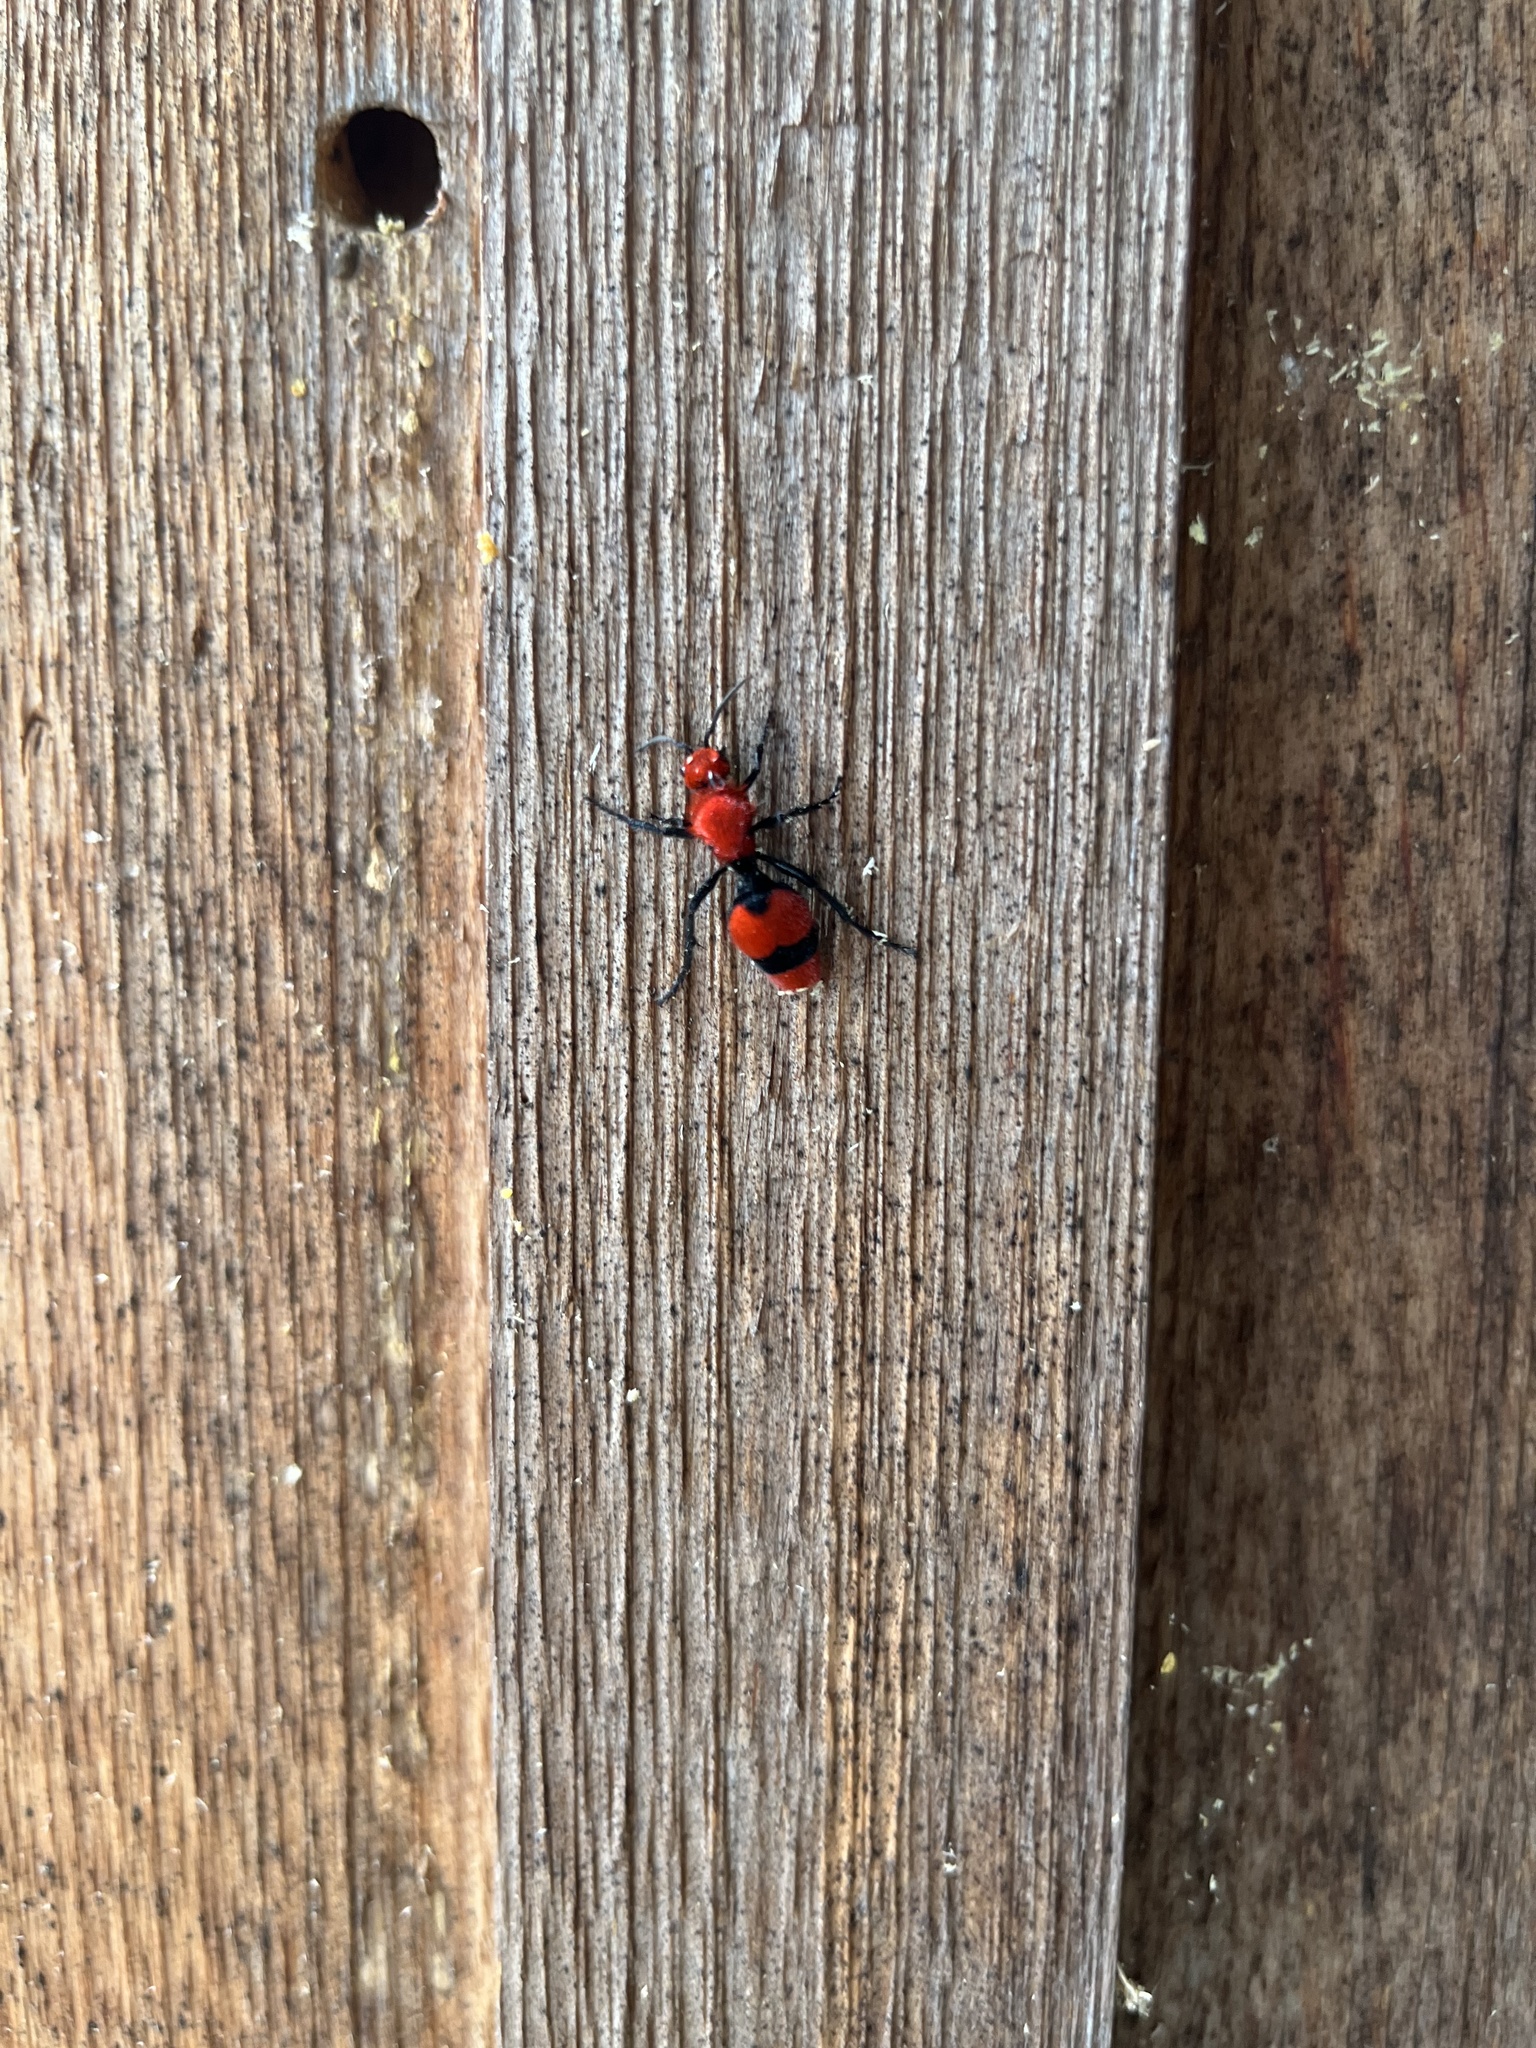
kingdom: Animalia
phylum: Arthropoda
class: Insecta
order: Hymenoptera
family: Mutillidae
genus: Dasymutilla
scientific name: Dasymutilla occidentalis
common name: Common eastern velvet ant
